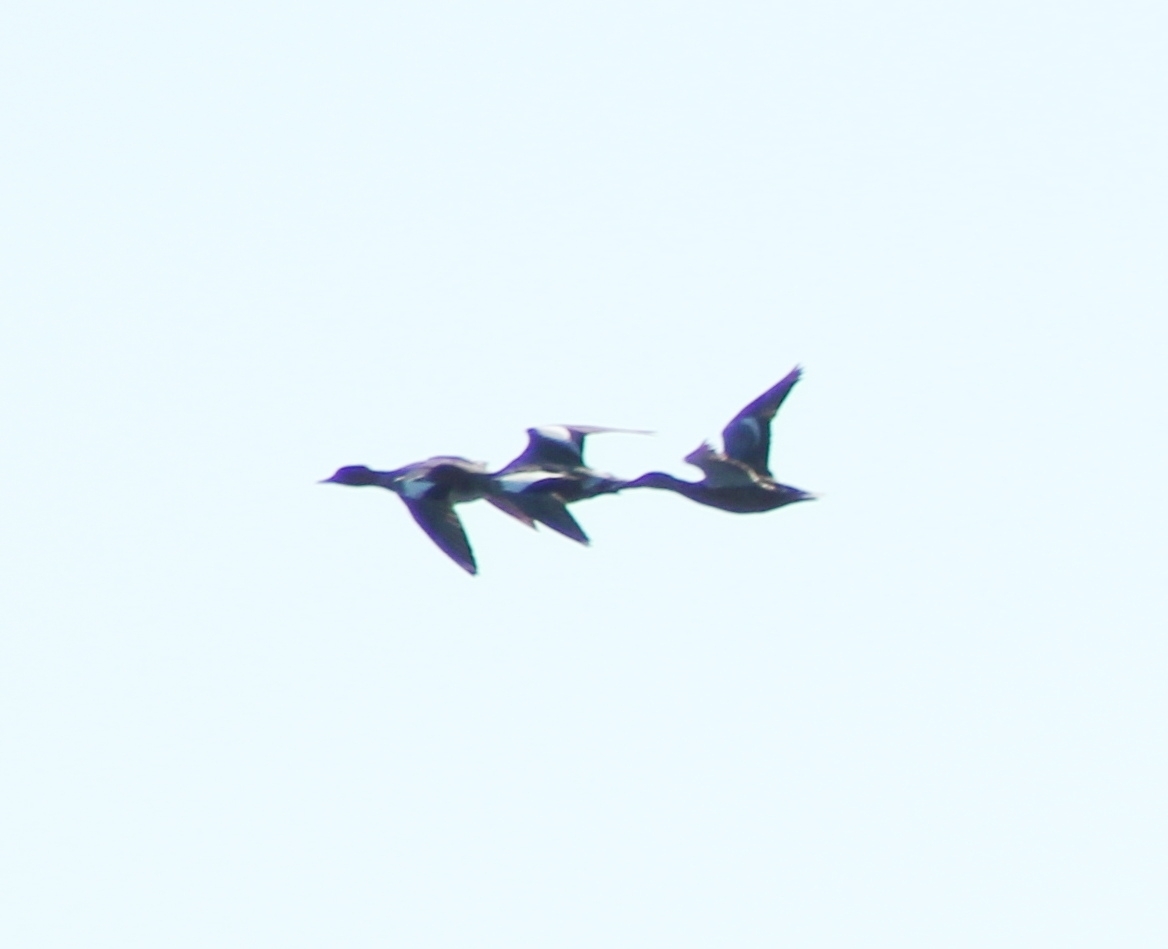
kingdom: Animalia
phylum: Chordata
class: Aves
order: Anseriformes
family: Anatidae
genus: Mareca
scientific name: Mareca penelope
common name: Eurasian wigeon
